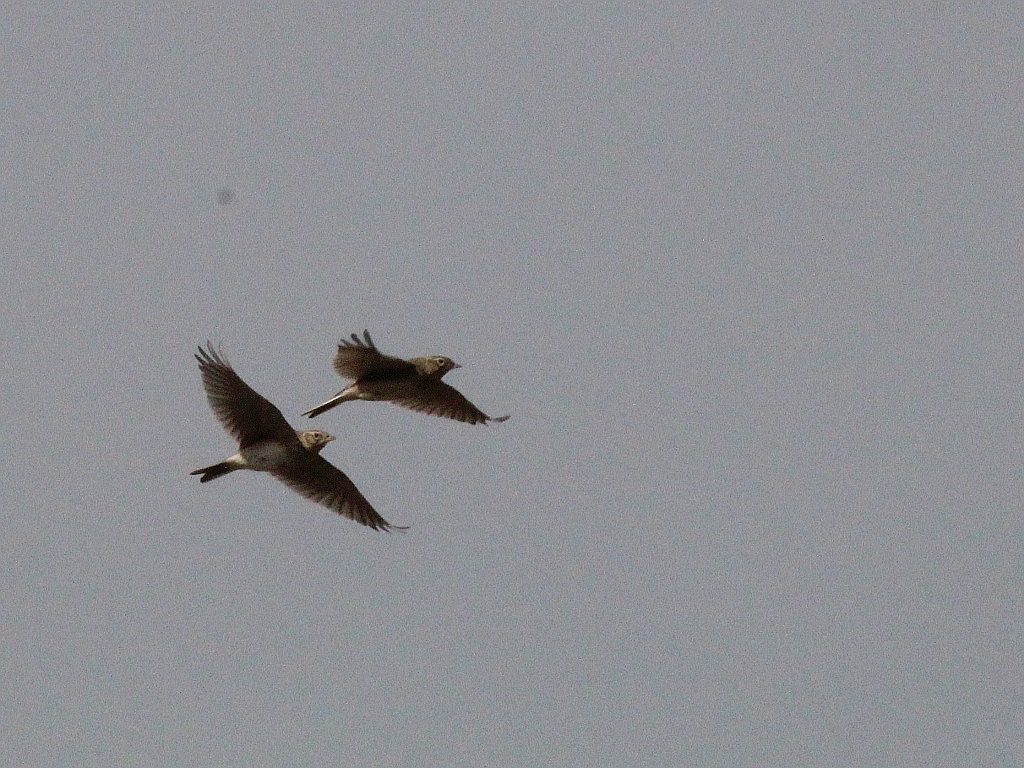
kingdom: Animalia
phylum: Chordata
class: Aves
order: Passeriformes
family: Alaudidae
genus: Alauda
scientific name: Alauda arvensis
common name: Eurasian skylark
